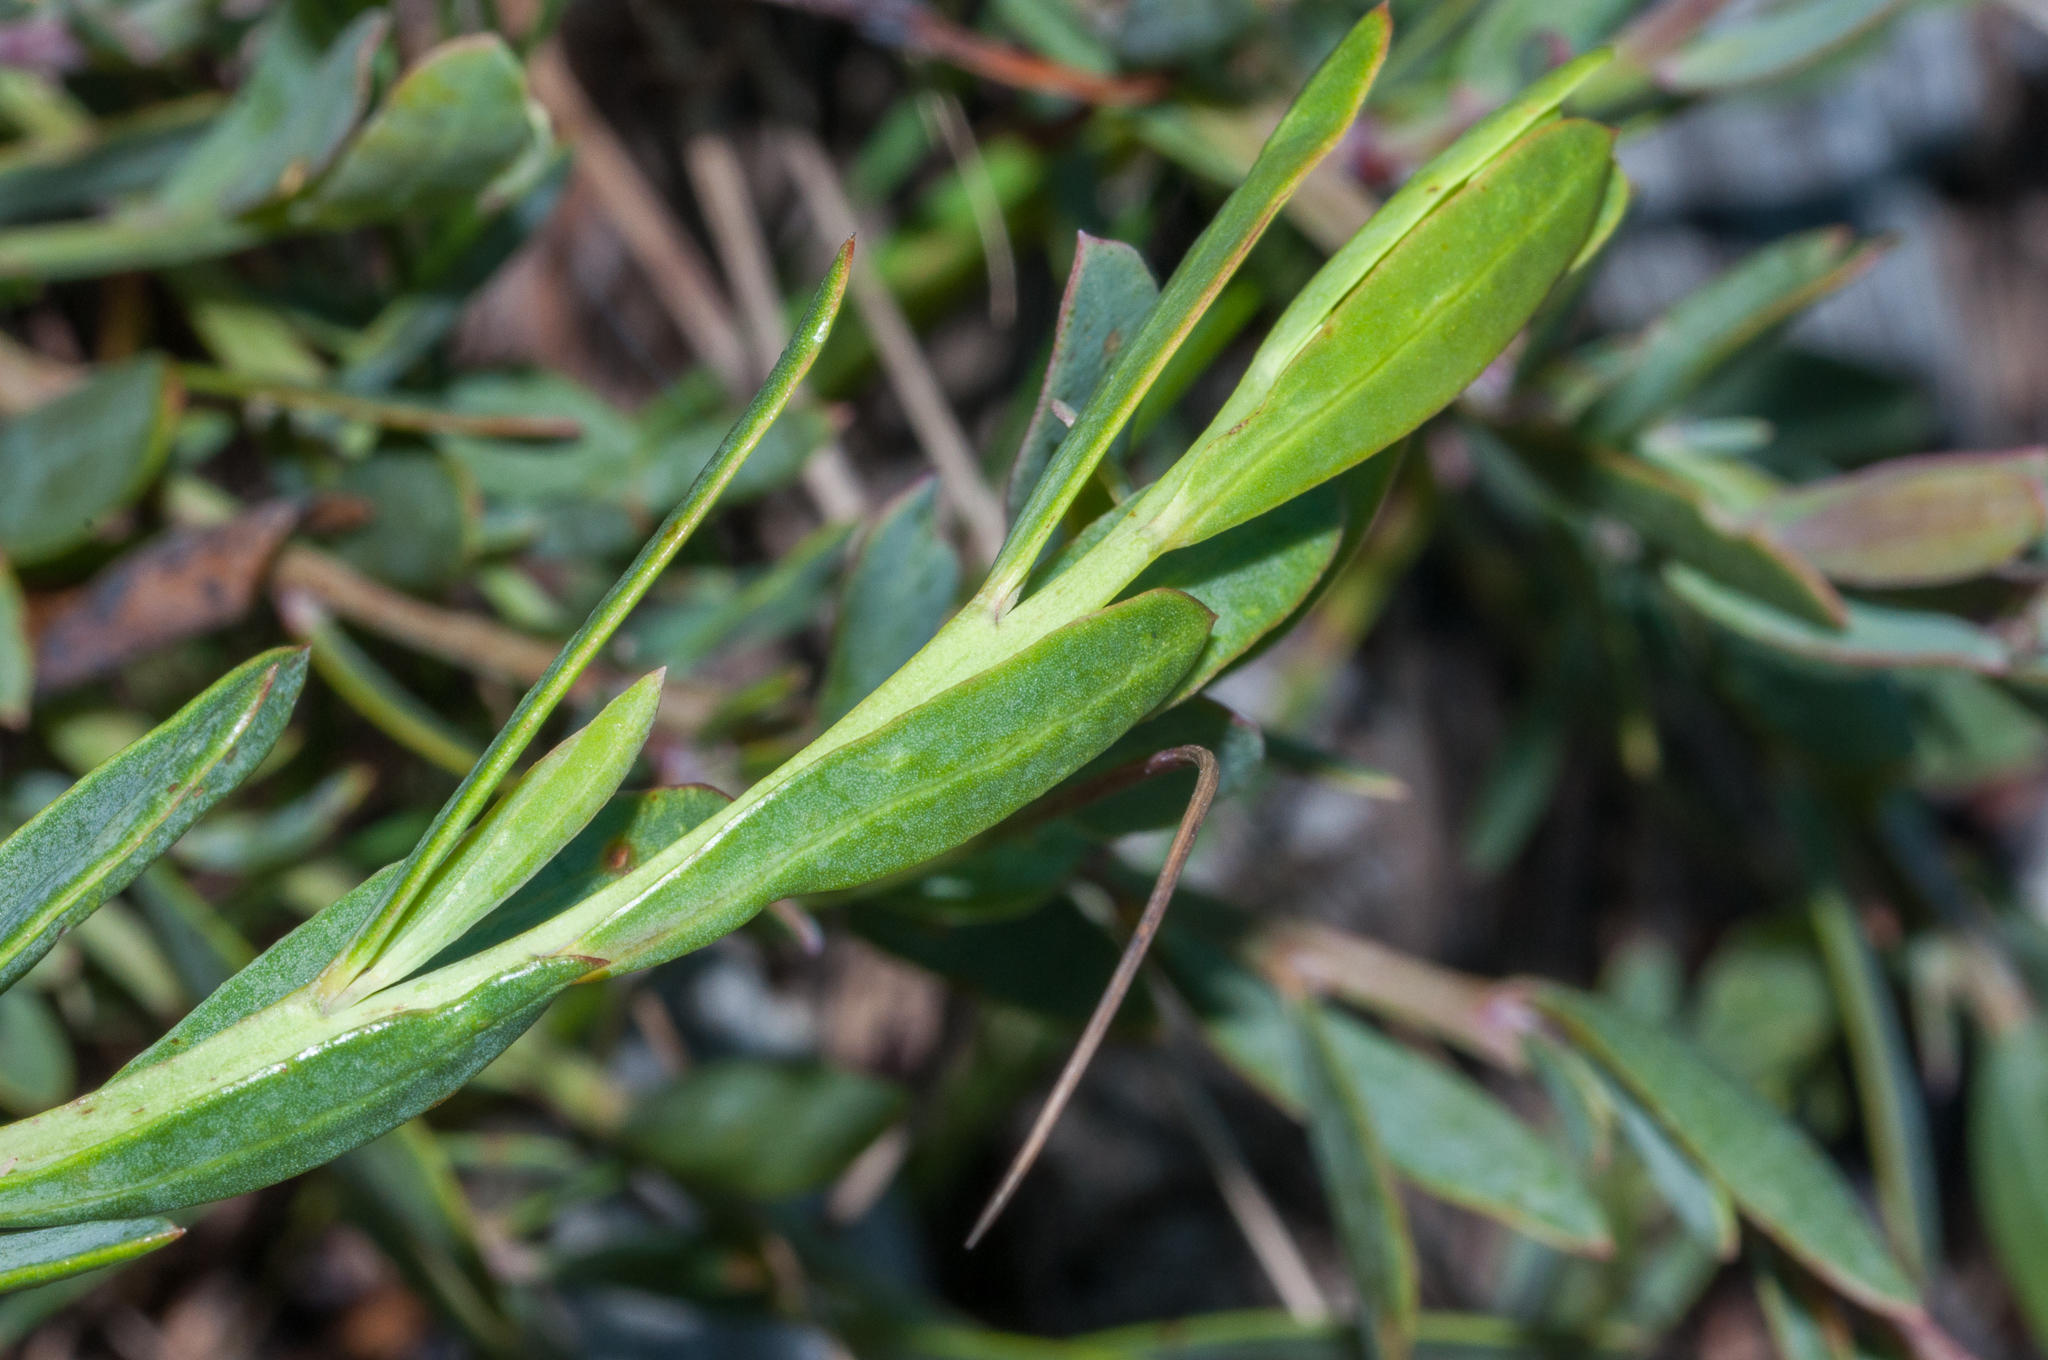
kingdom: Plantae
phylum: Tracheophyta
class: Magnoliopsida
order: Fabales
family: Fabaceae
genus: Rafnia
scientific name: Rafnia crassifolia
